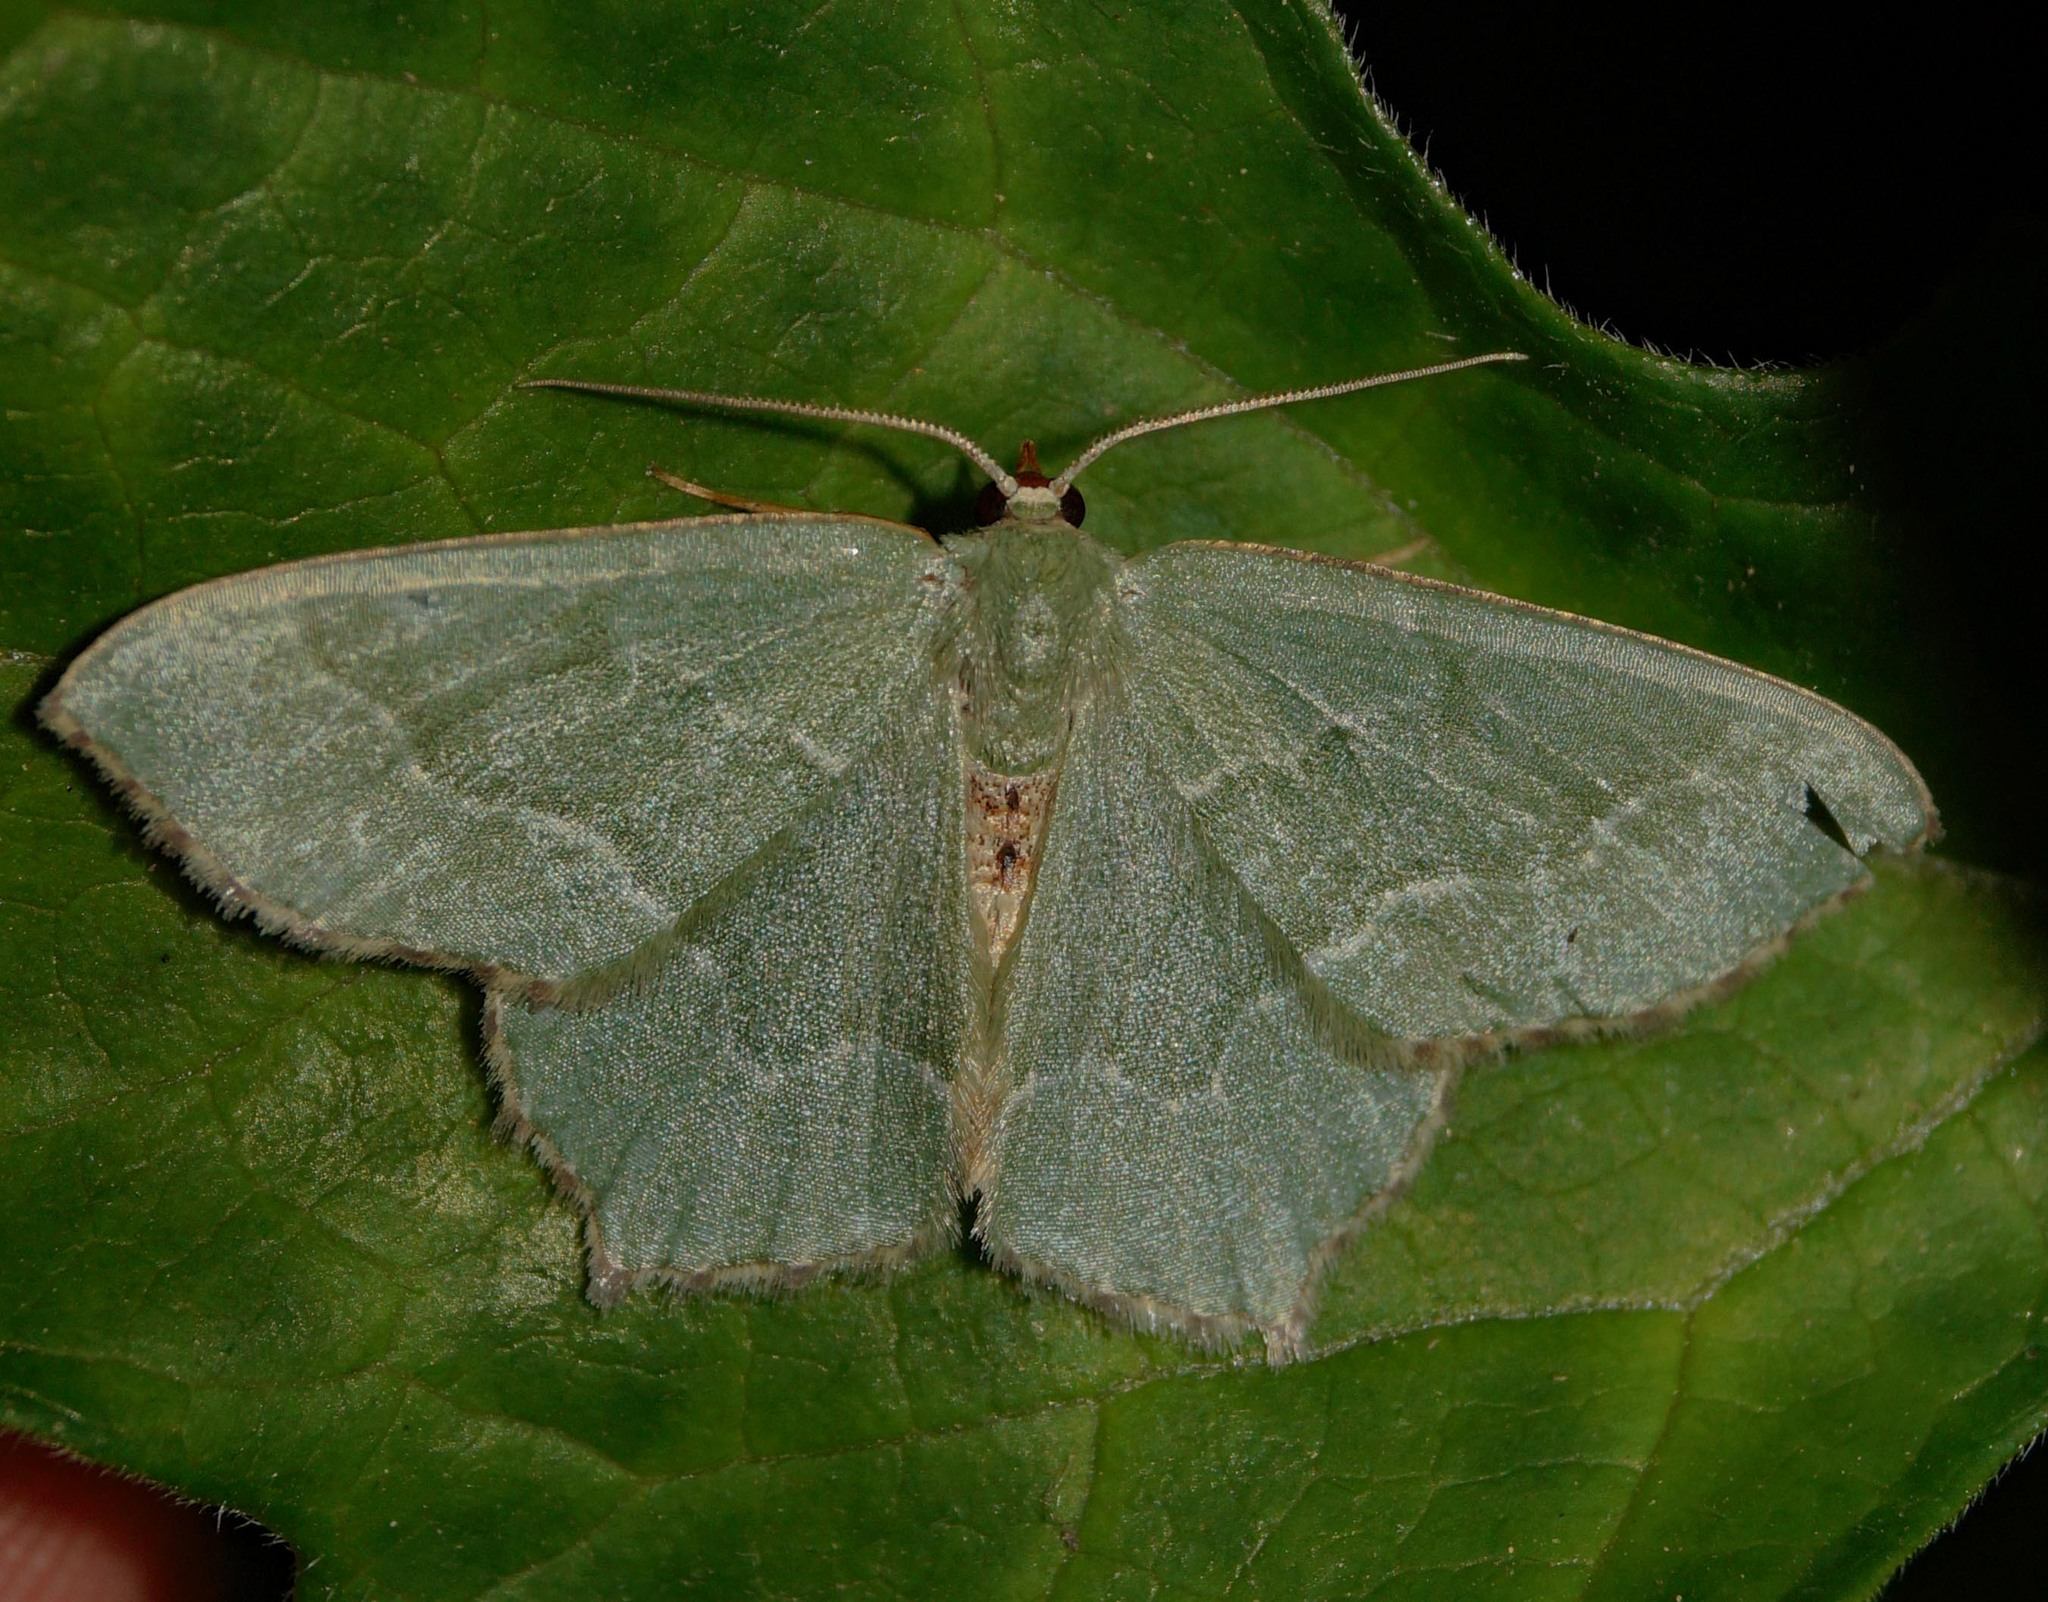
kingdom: Animalia
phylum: Arthropoda
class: Insecta
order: Lepidoptera
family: Geometridae
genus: Hemithea
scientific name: Hemithea aestivaria
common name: Common emerald
